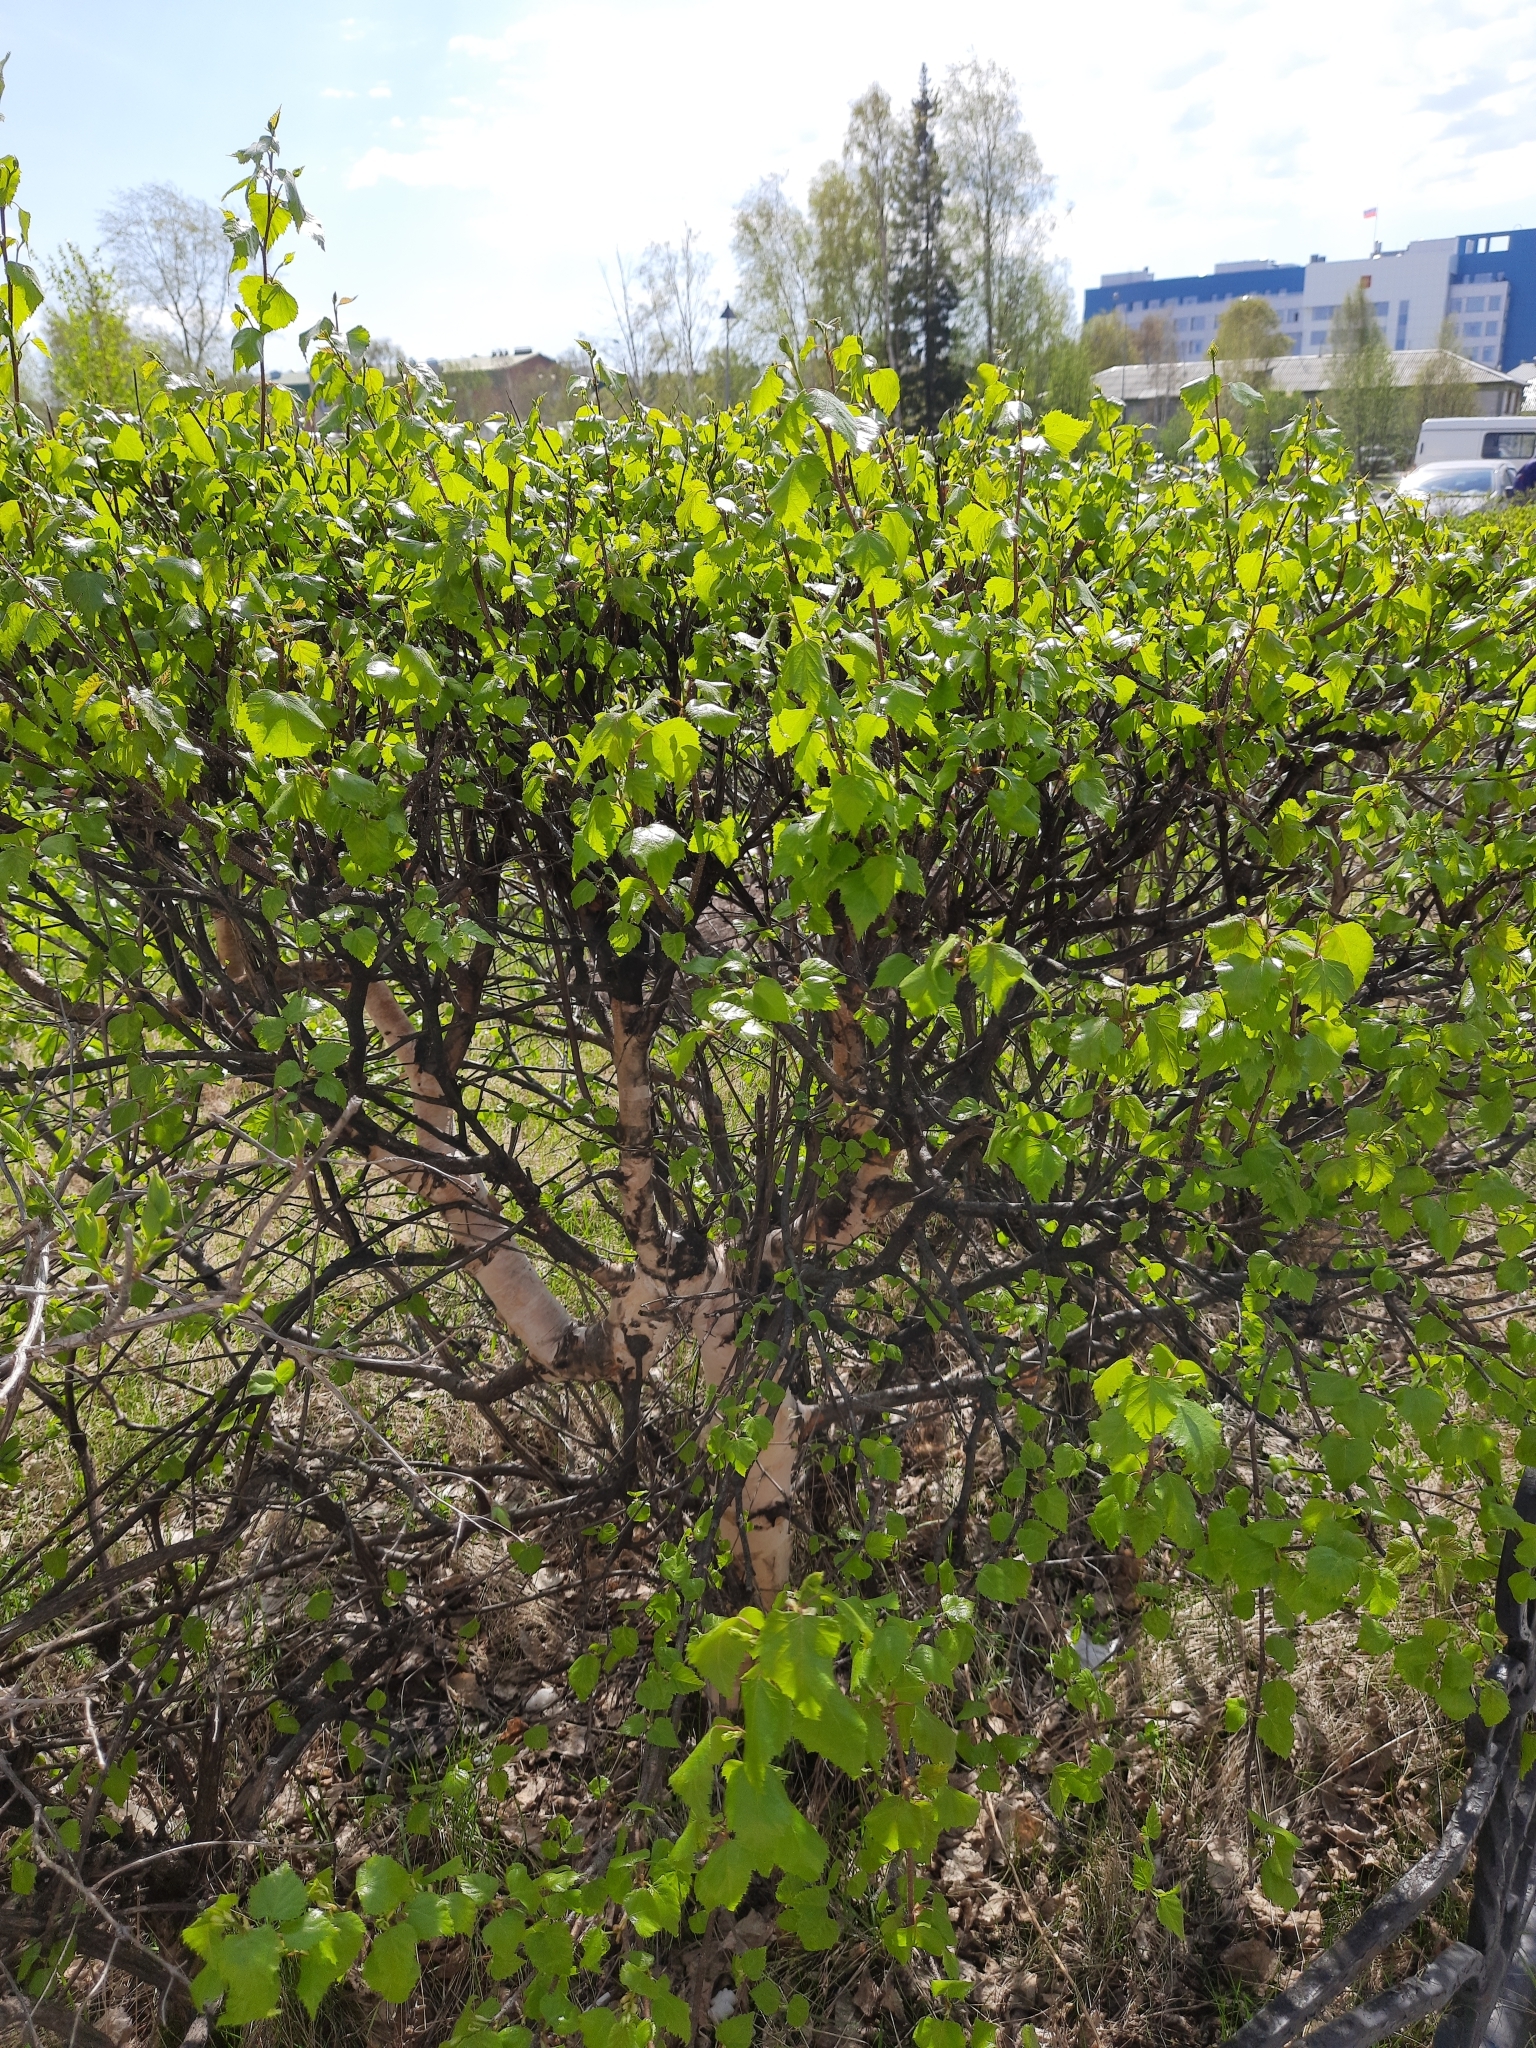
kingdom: Plantae
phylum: Tracheophyta
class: Magnoliopsida
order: Fagales
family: Betulaceae
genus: Betula
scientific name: Betula pendula
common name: Silver birch
